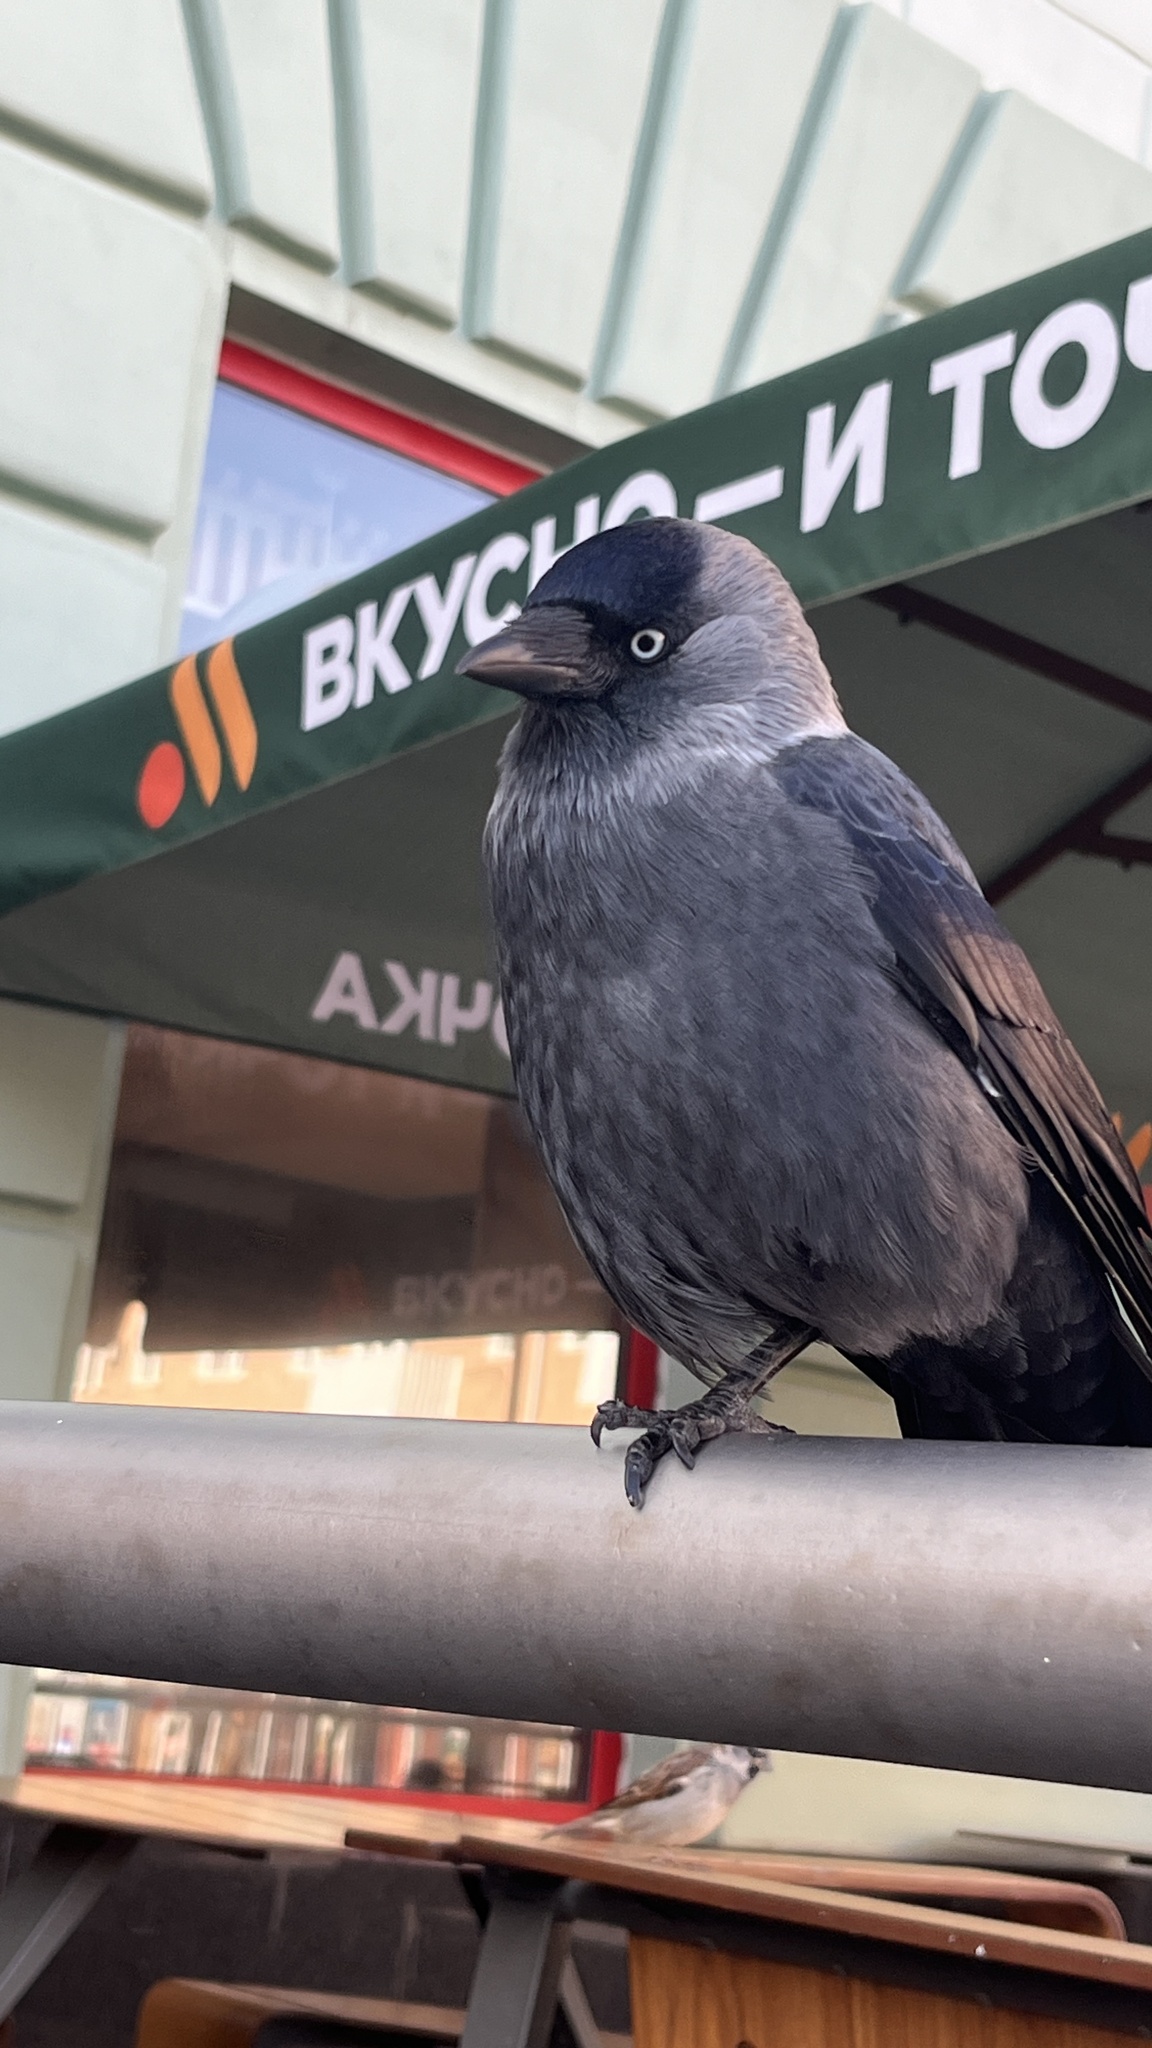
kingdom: Animalia
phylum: Chordata
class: Aves
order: Passeriformes
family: Corvidae
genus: Coloeus
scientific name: Coloeus monedula
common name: Western jackdaw
